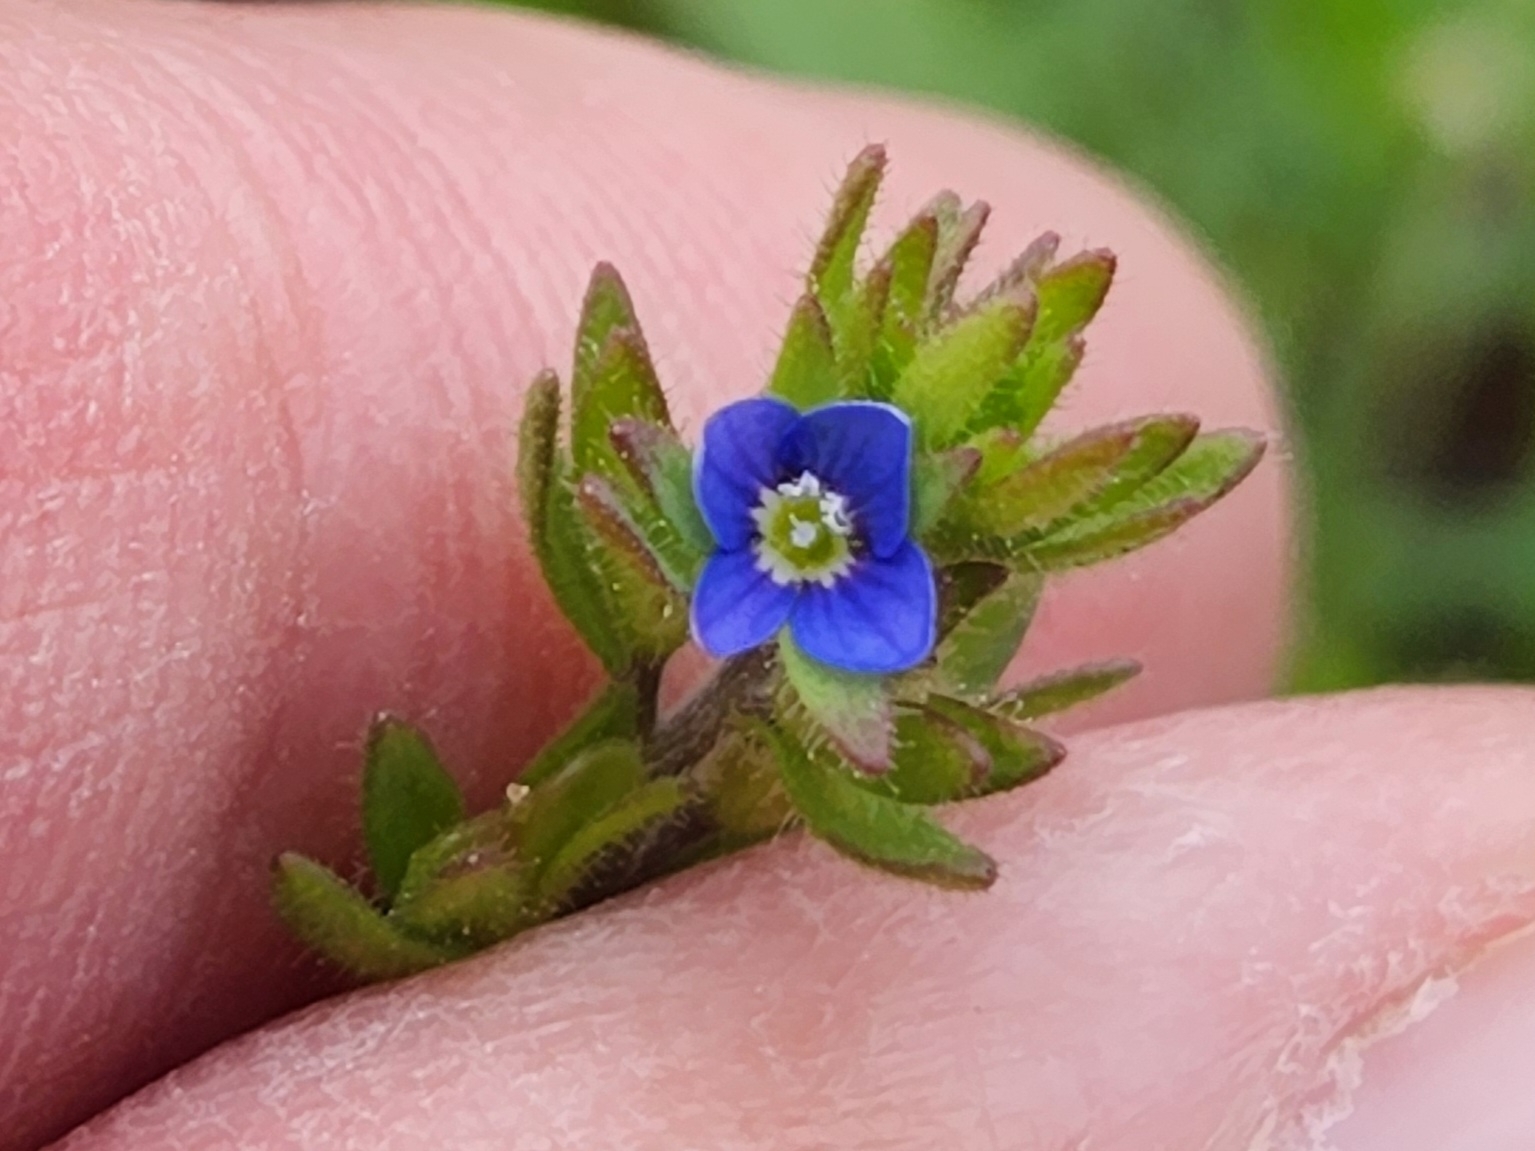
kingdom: Plantae
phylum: Tracheophyta
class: Magnoliopsida
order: Lamiales
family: Plantaginaceae
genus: Veronica
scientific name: Veronica arvensis
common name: Corn speedwell
